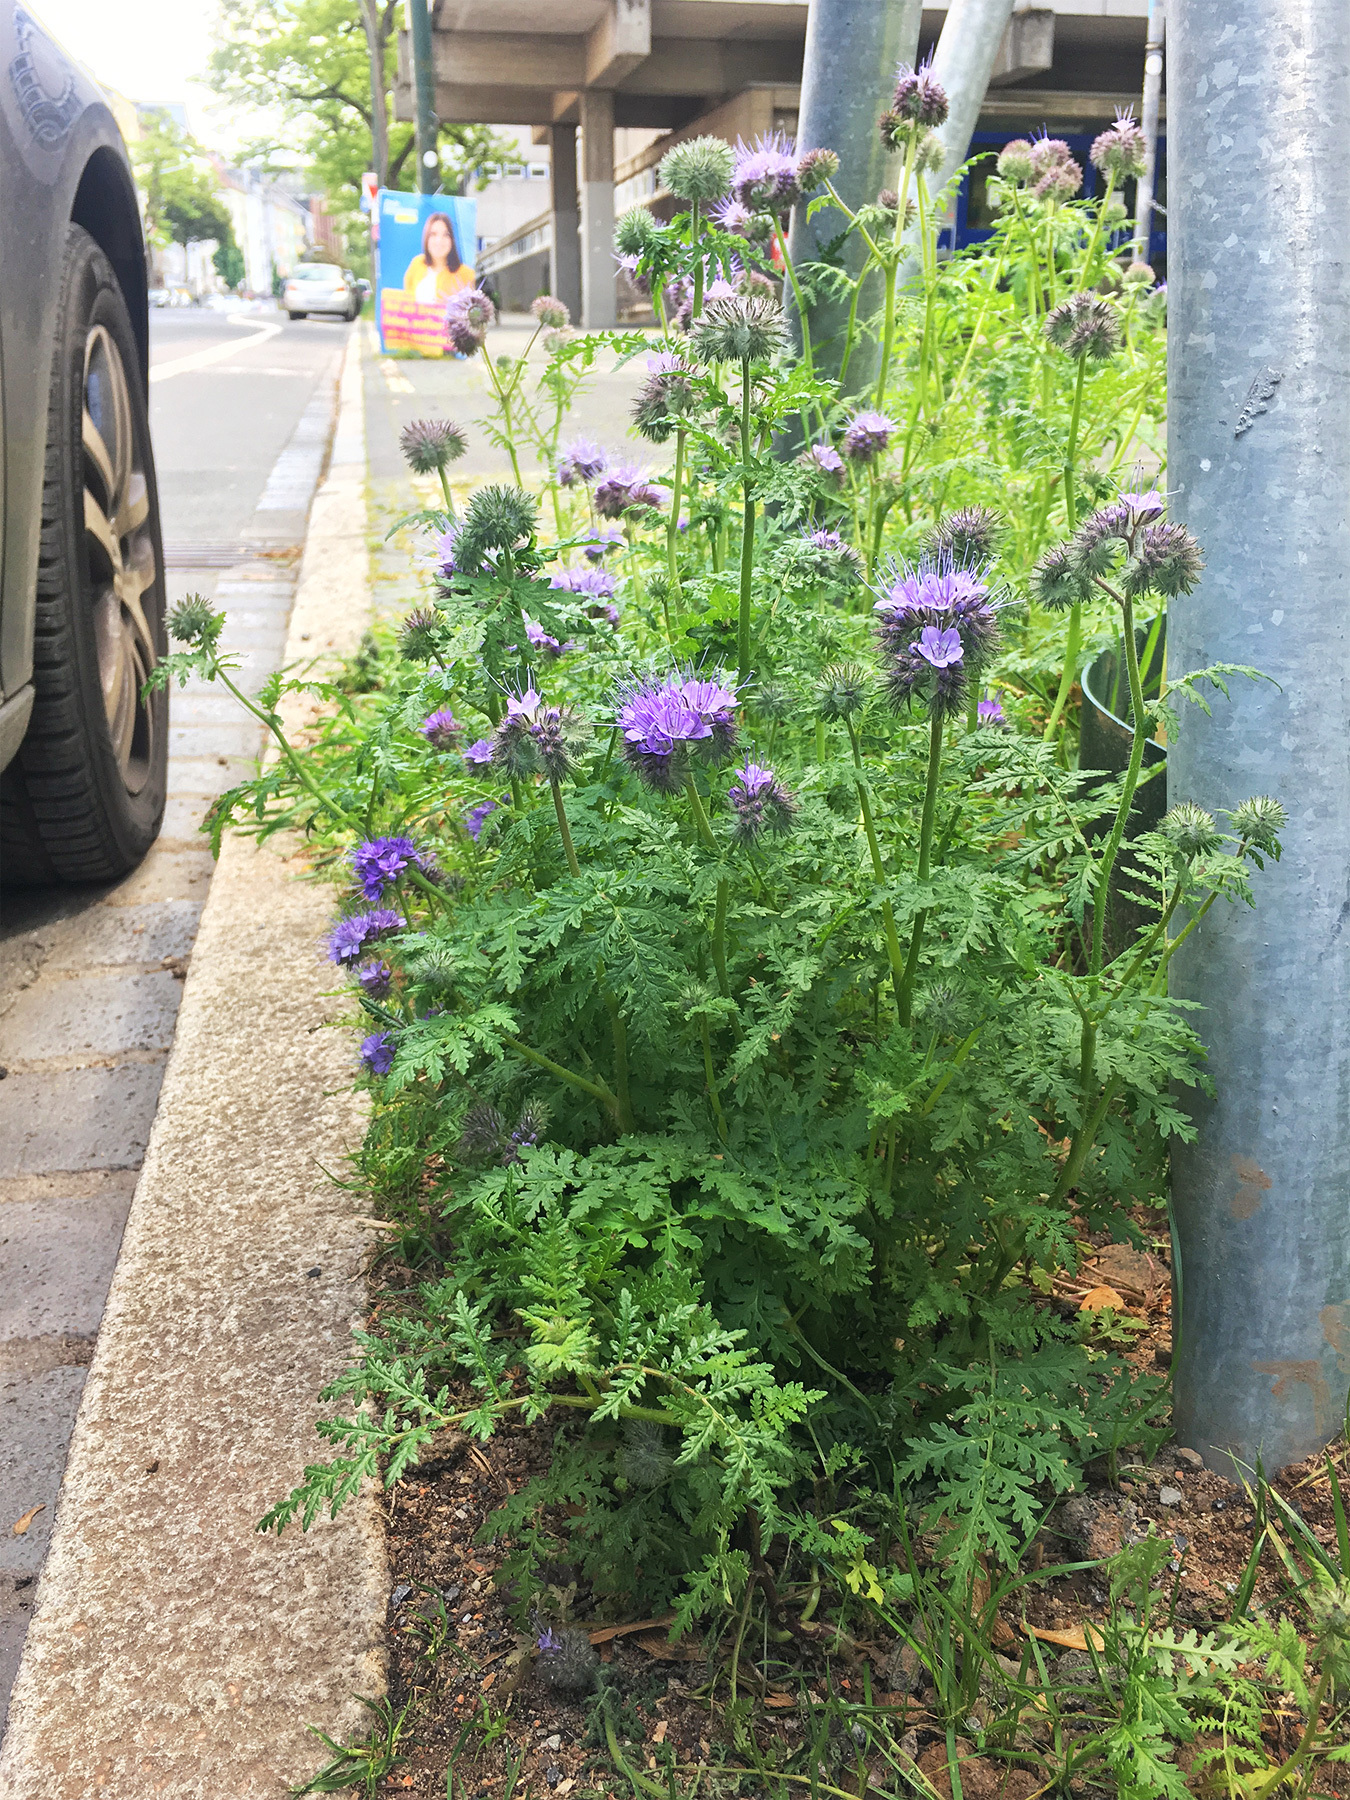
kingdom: Plantae
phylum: Tracheophyta
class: Magnoliopsida
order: Boraginales
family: Hydrophyllaceae
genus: Phacelia
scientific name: Phacelia tanacetifolia
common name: Phacelia
